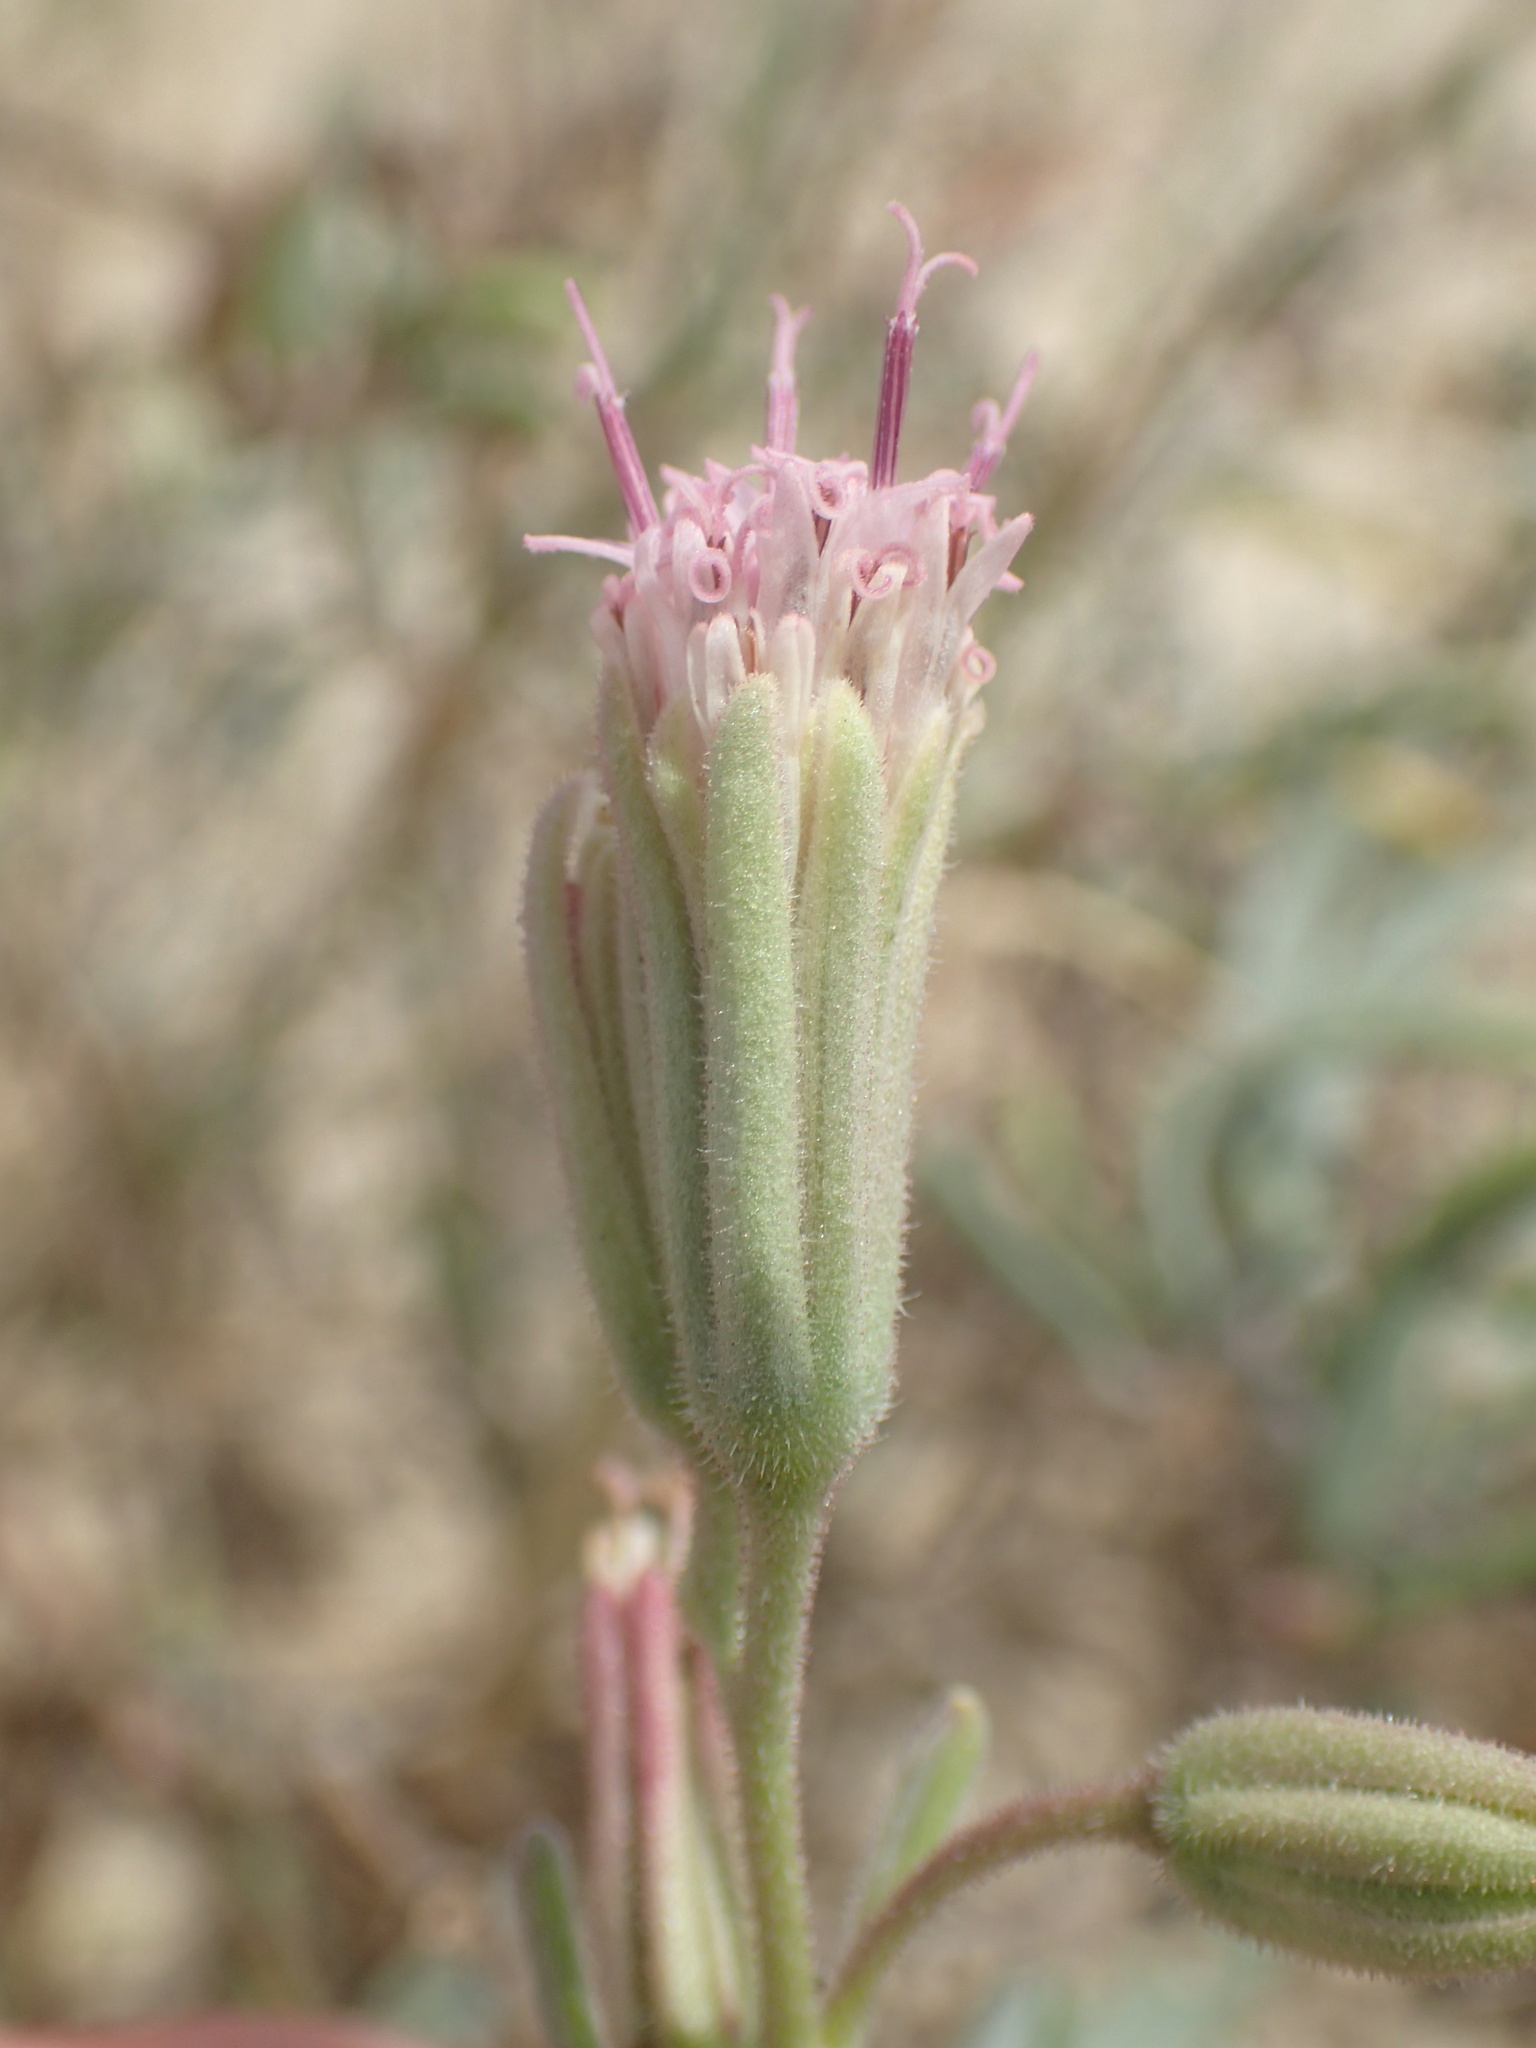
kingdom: Plantae
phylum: Tracheophyta
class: Magnoliopsida
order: Asterales
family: Asteraceae
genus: Palafoxia
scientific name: Palafoxia linearis
